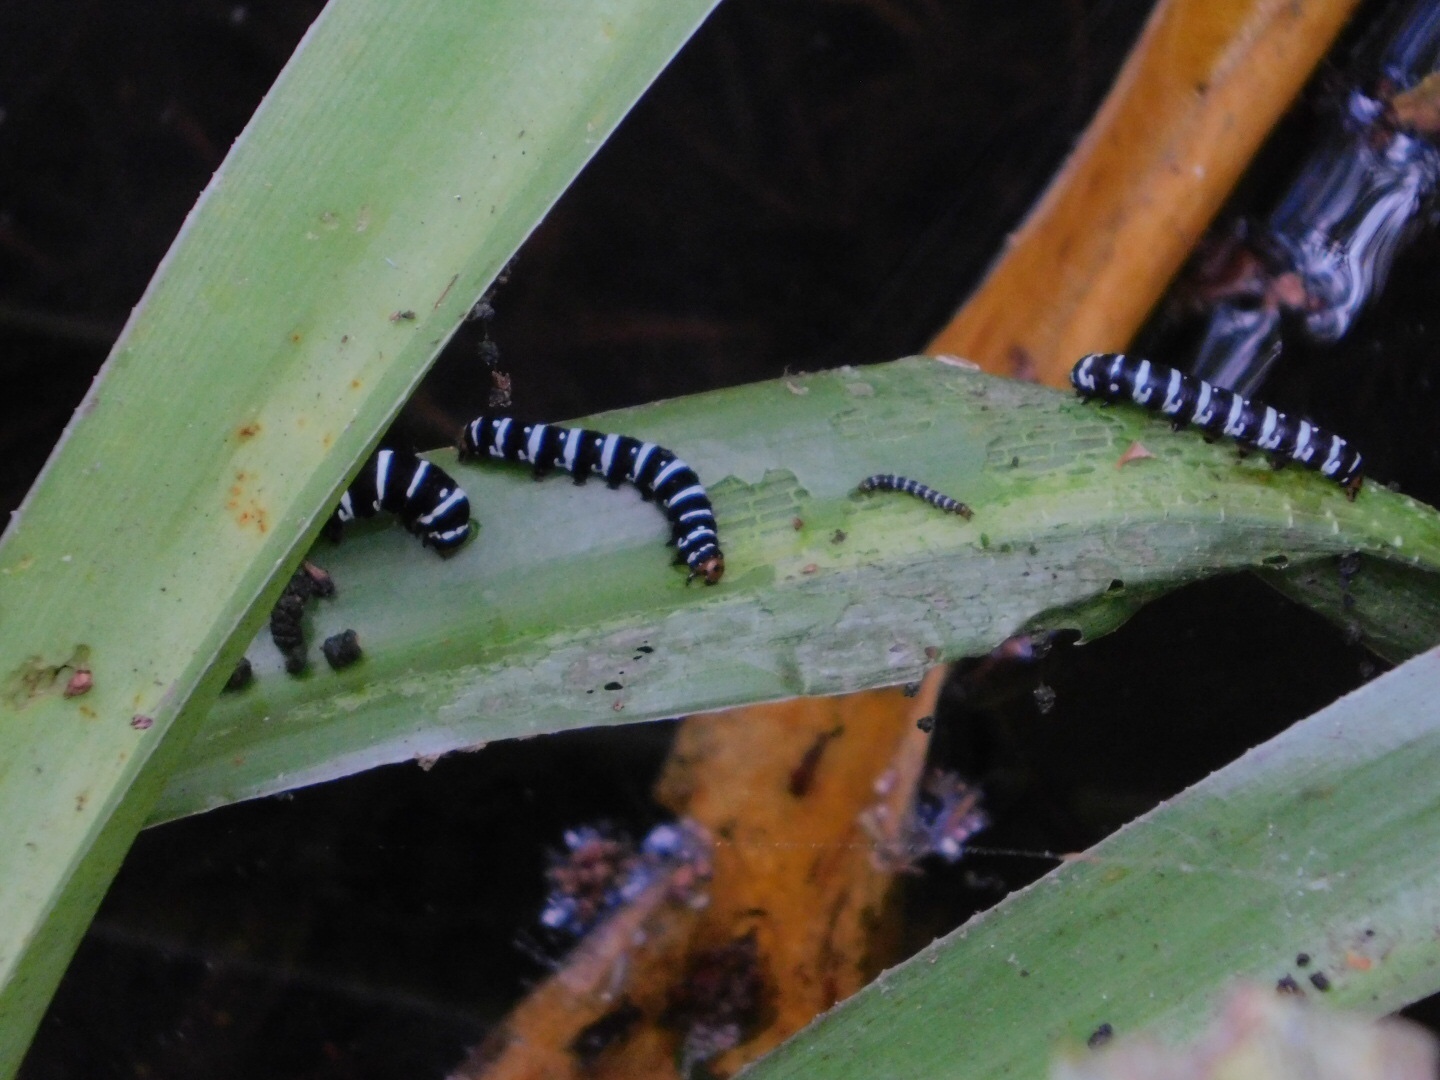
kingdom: Animalia
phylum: Arthropoda
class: Insecta
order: Lepidoptera
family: Noctuidae
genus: Xanthopastis
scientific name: Xanthopastis regnatrix
